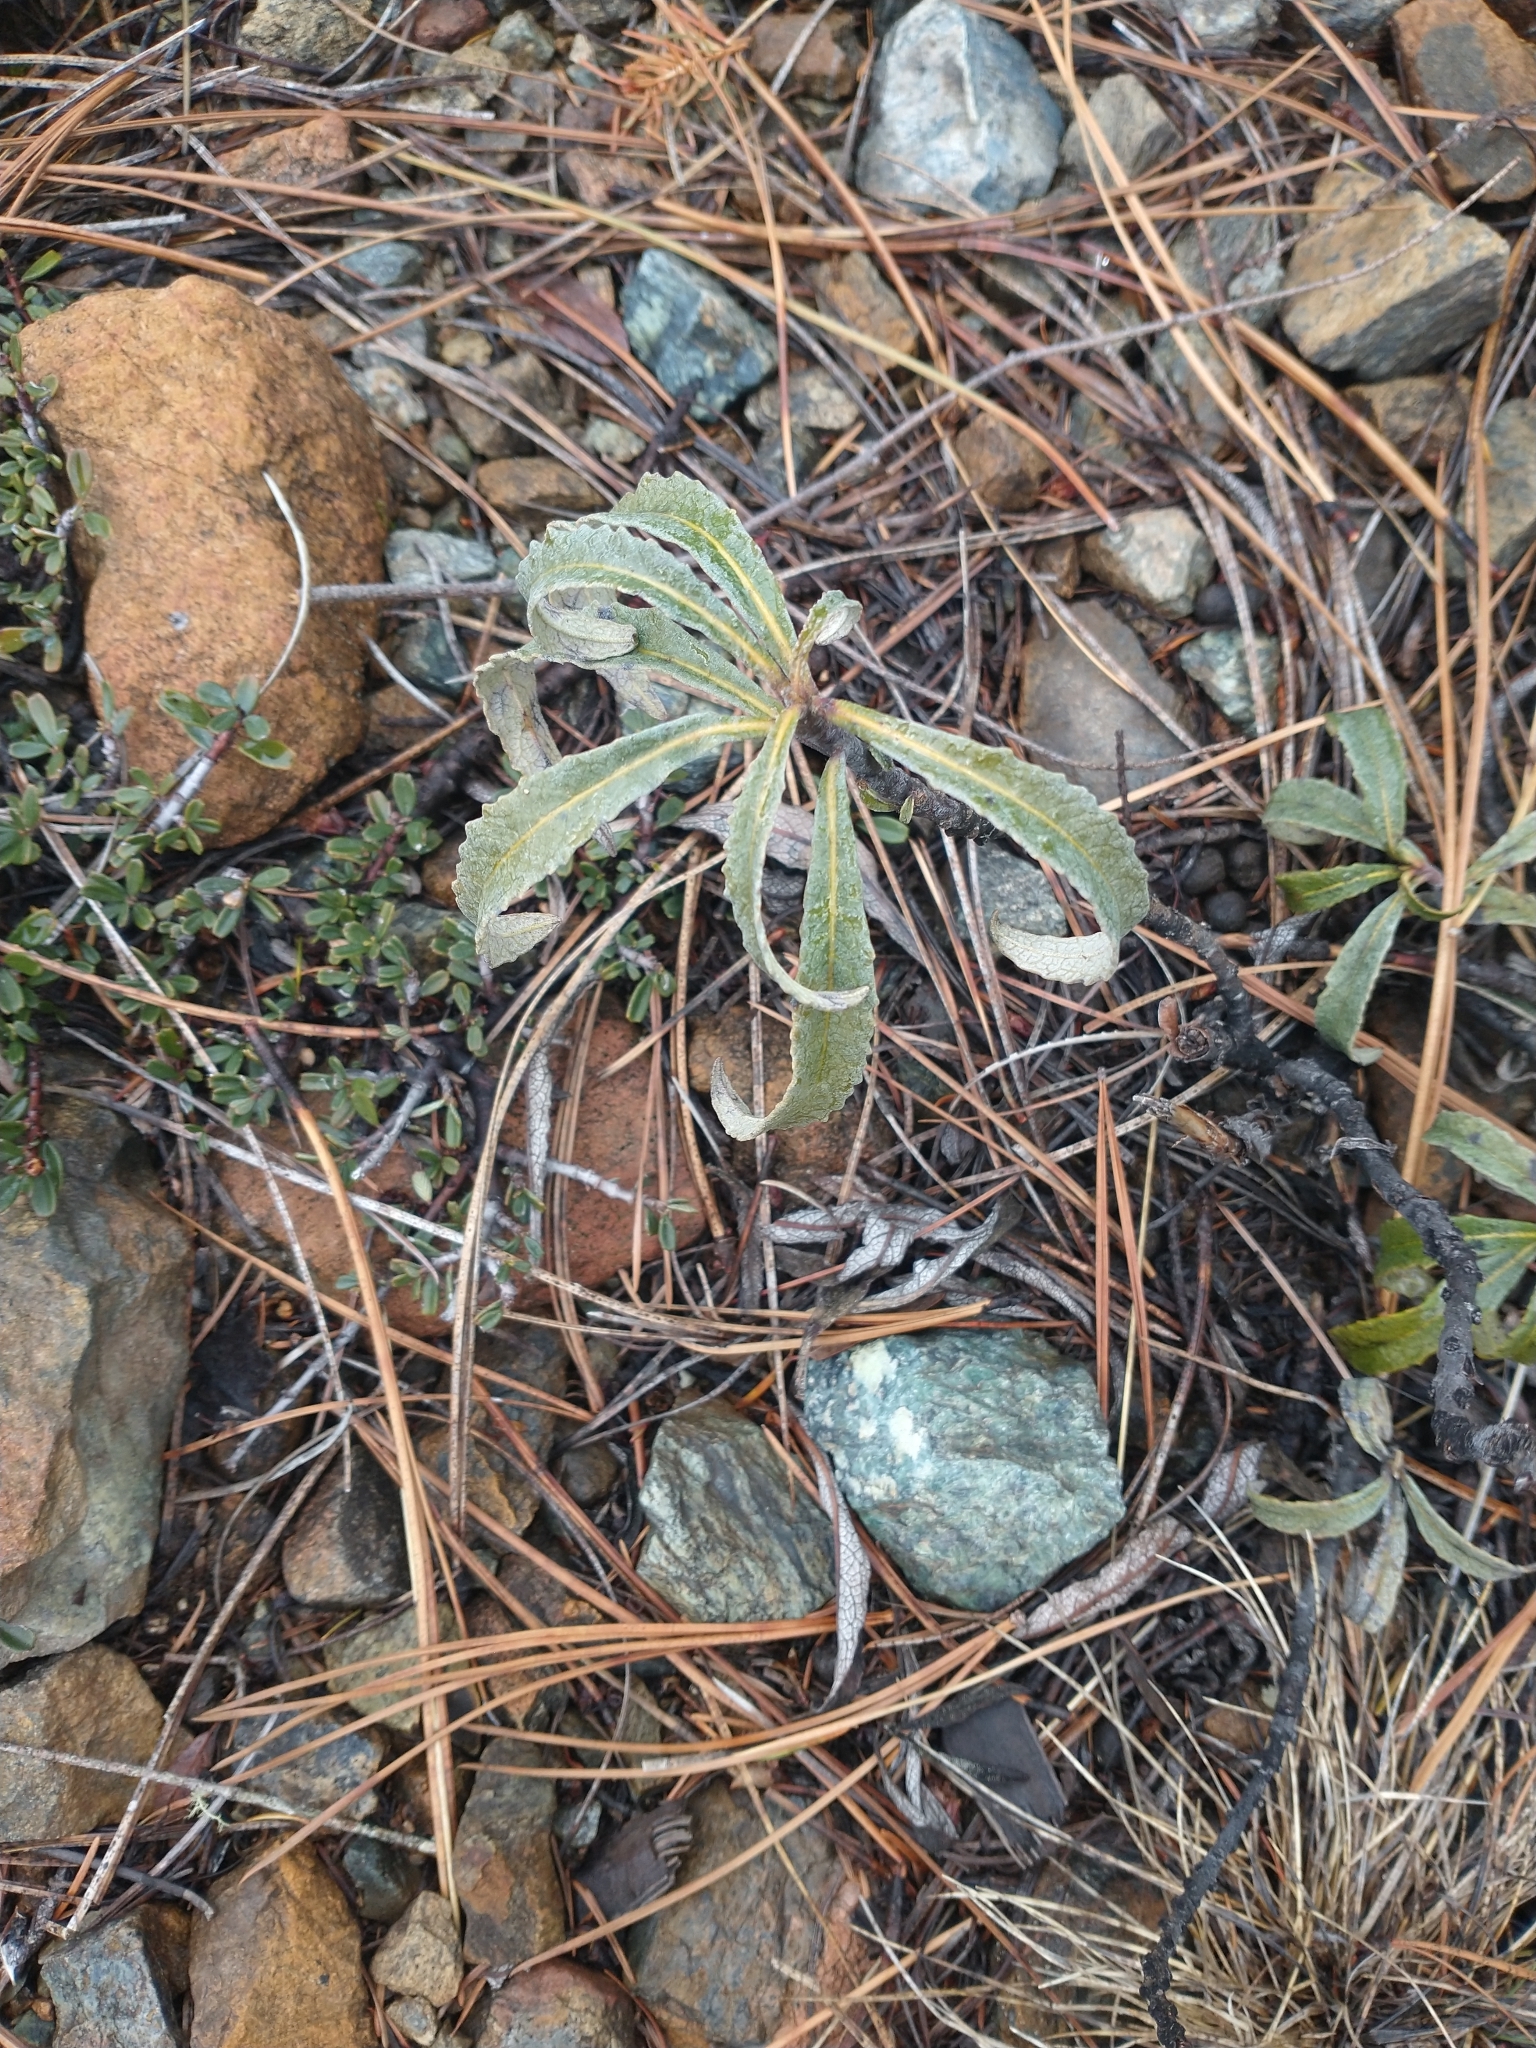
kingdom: Plantae
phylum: Tracheophyta
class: Magnoliopsida
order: Fagales
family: Fagaceae
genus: Chrysolepis
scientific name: Chrysolepis chrysophylla
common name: Giant chinquapin
